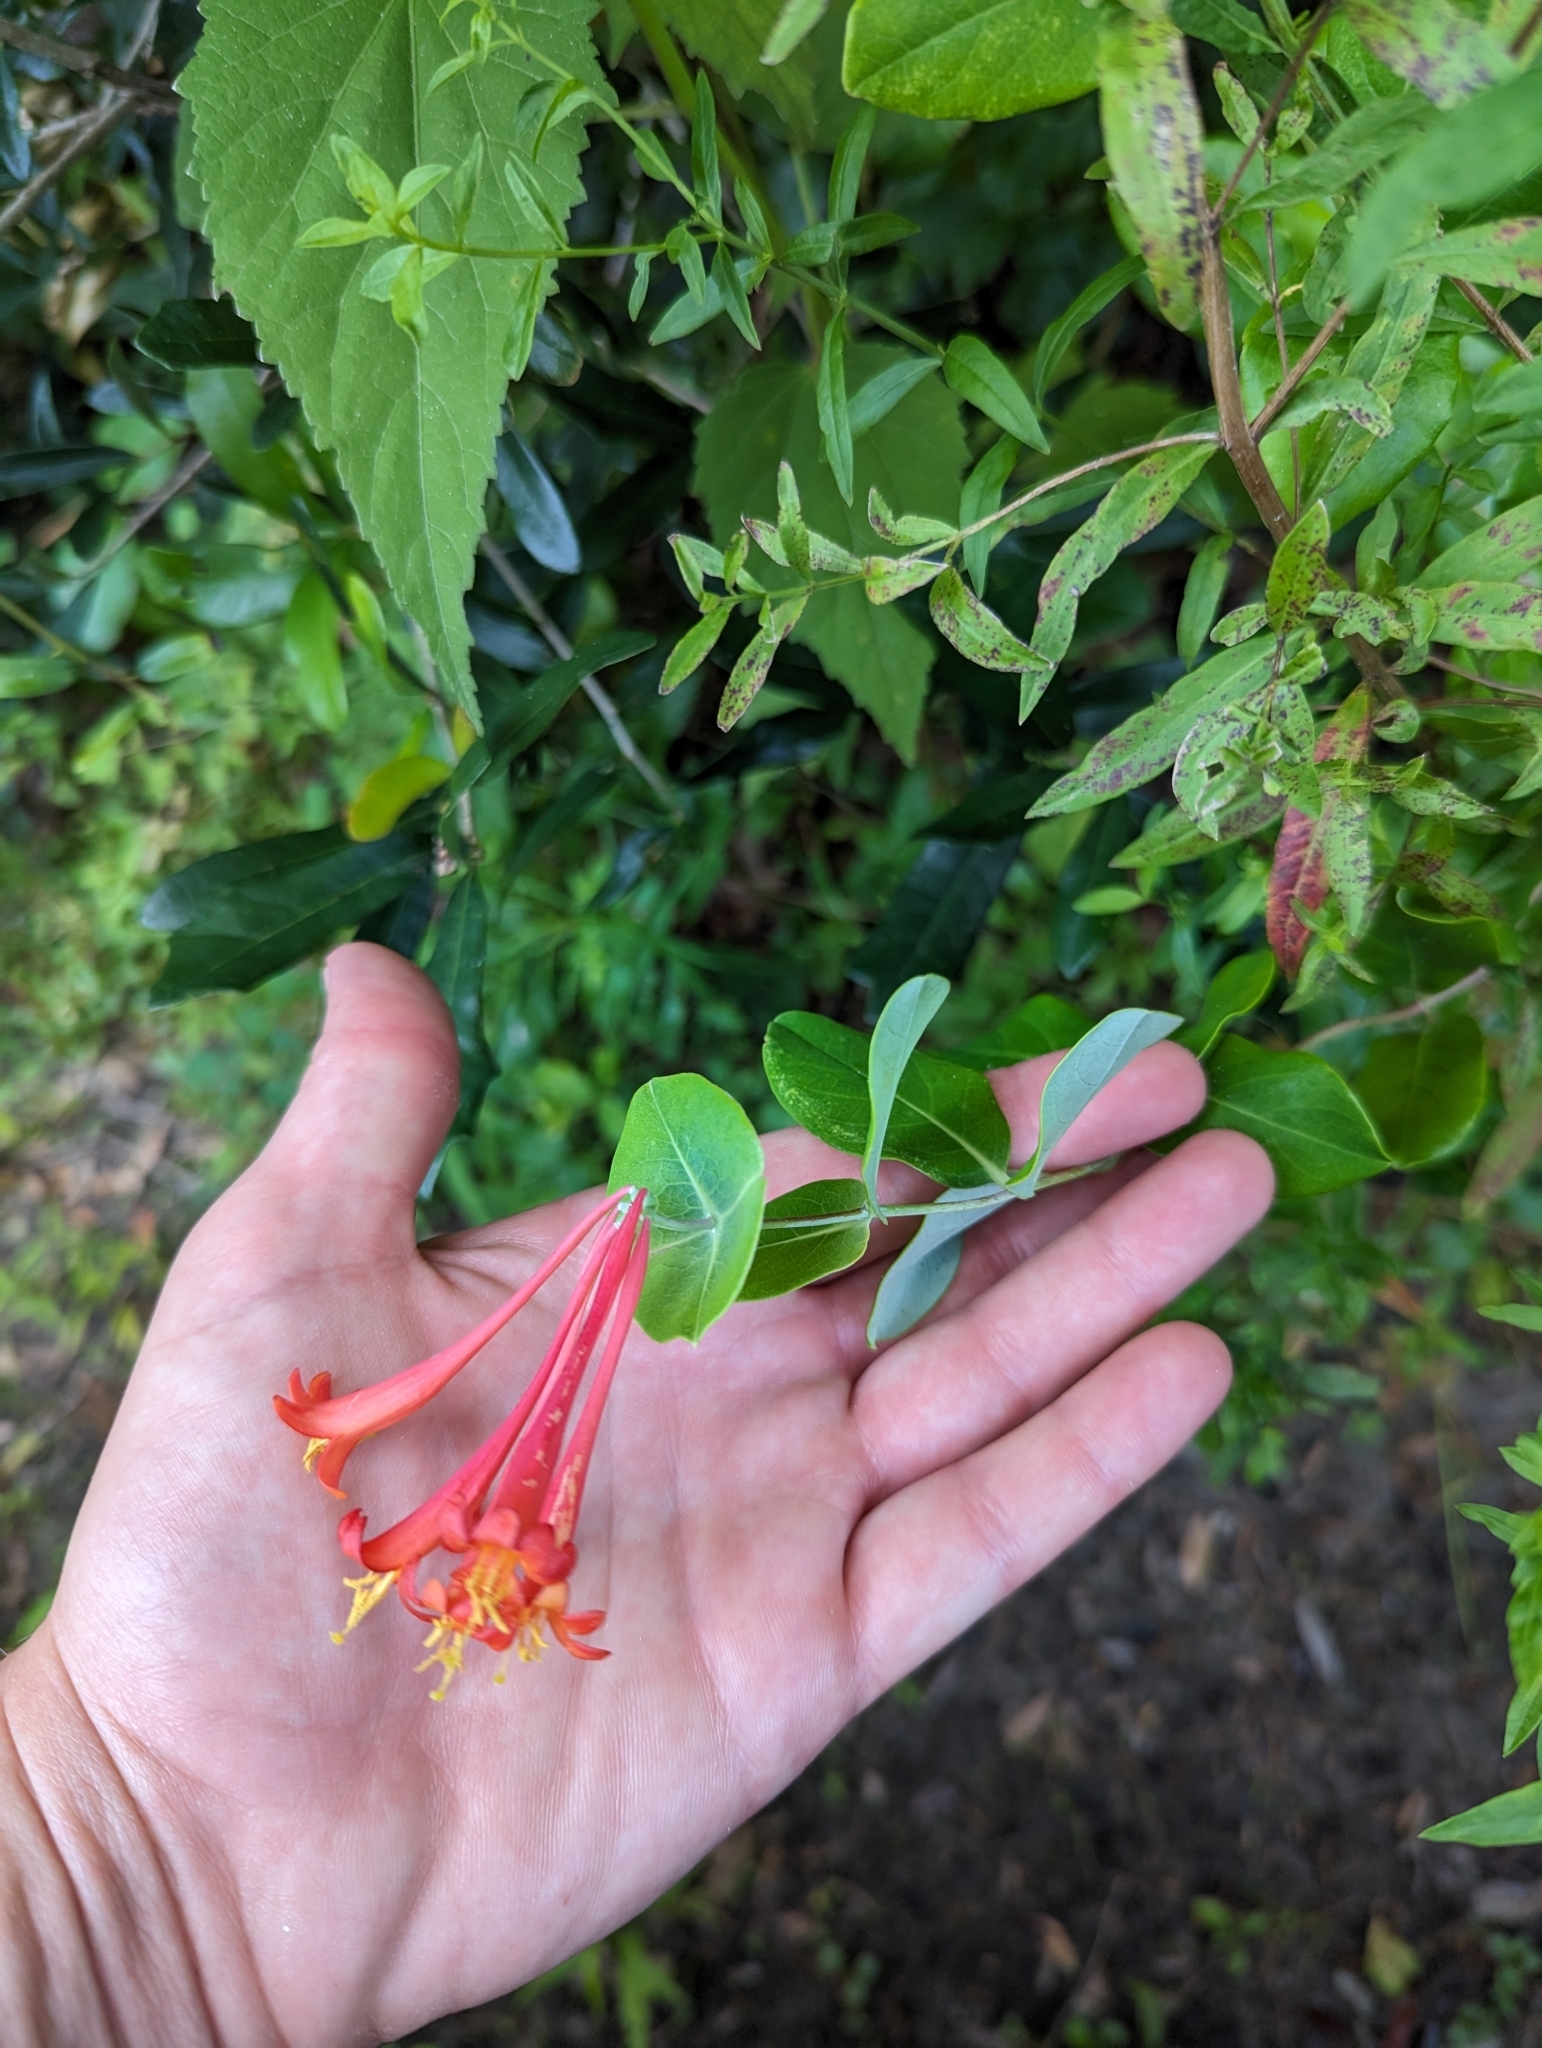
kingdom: Plantae
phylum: Tracheophyta
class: Magnoliopsida
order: Dipsacales
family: Caprifoliaceae
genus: Lonicera
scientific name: Lonicera sempervirens
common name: Coral honeysuckle
